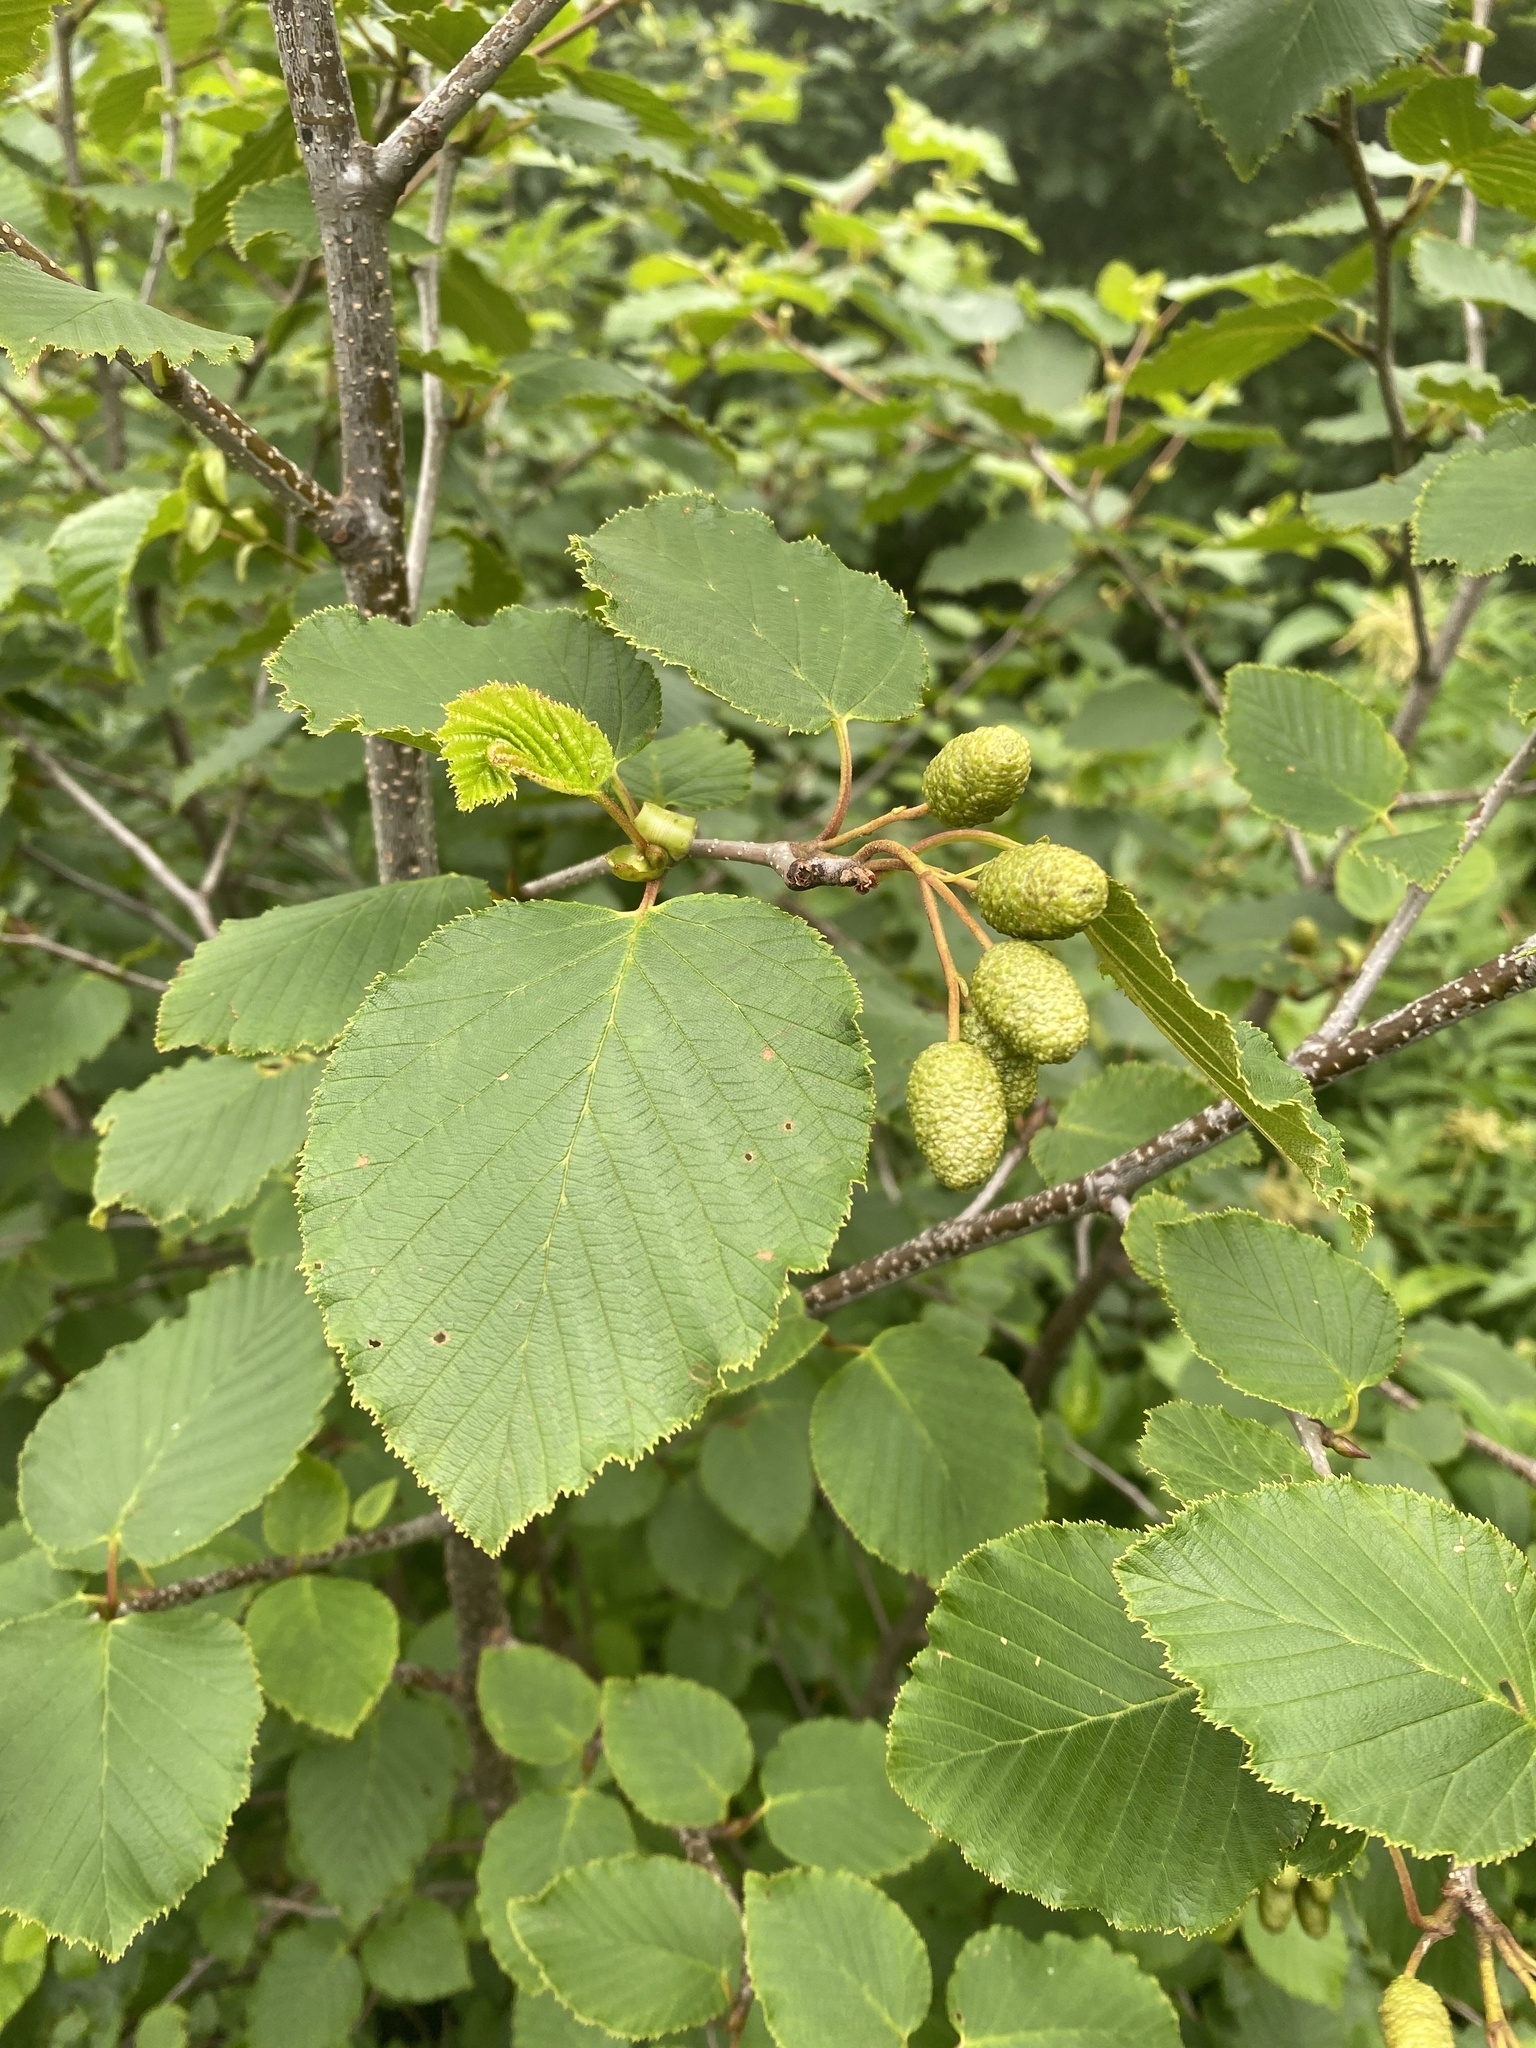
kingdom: Plantae
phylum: Tracheophyta
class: Magnoliopsida
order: Fagales
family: Betulaceae
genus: Alnus
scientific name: Alnus maximowiczii
